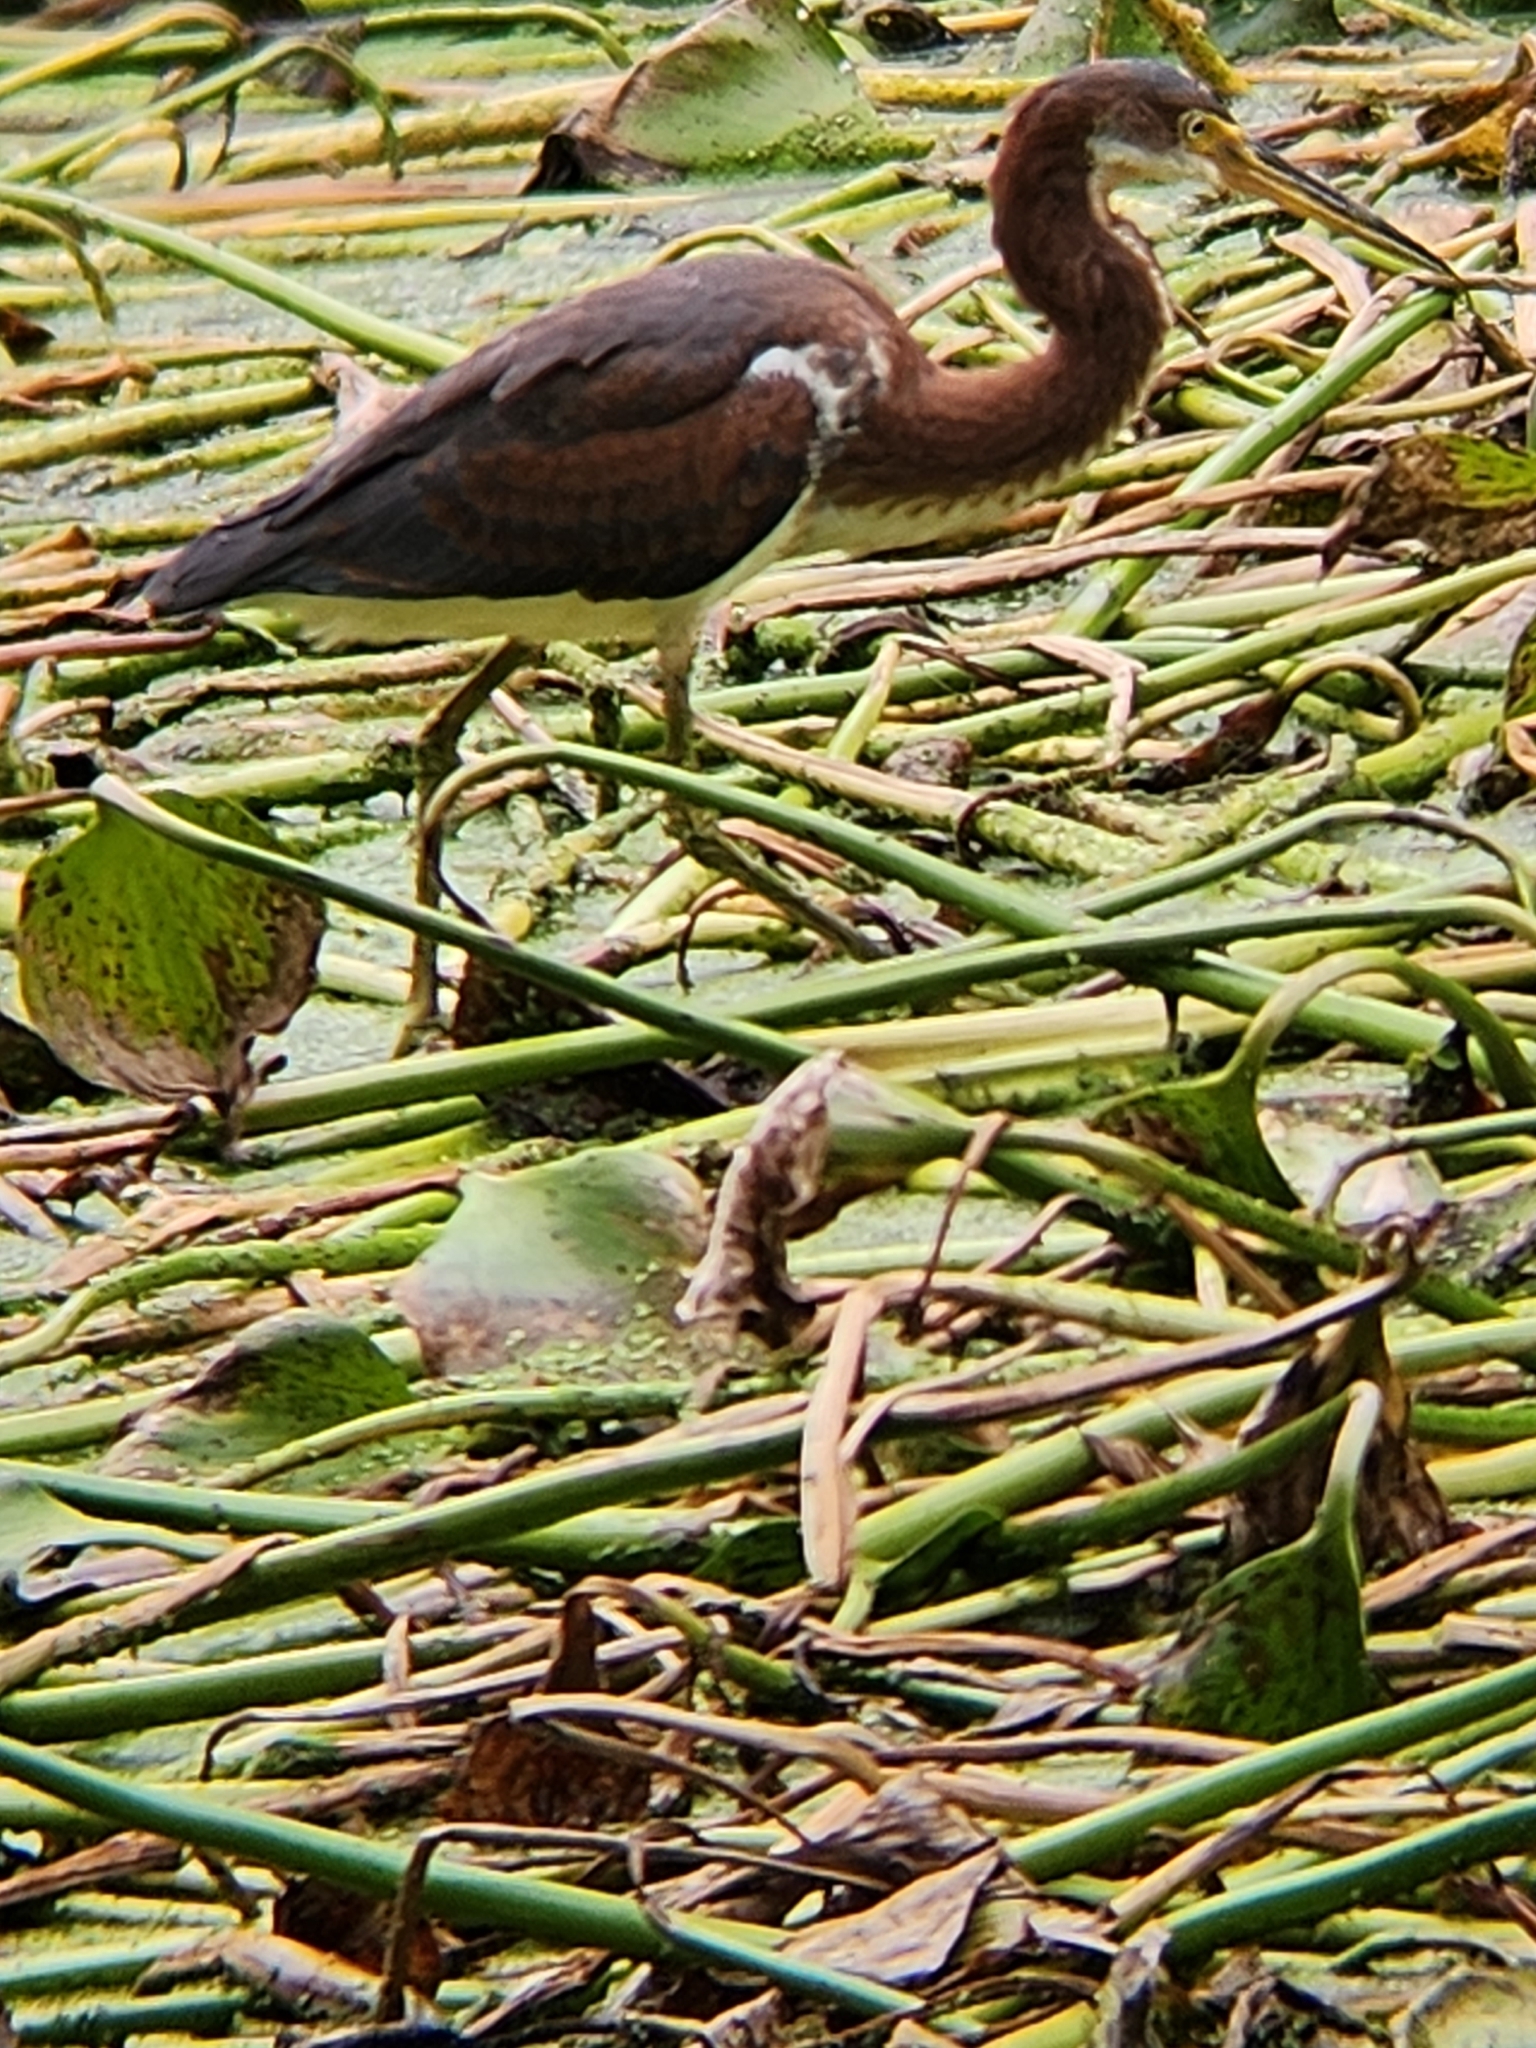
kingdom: Animalia
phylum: Chordata
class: Aves
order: Pelecaniformes
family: Ardeidae
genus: Egretta
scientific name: Egretta tricolor
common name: Tricolored heron
